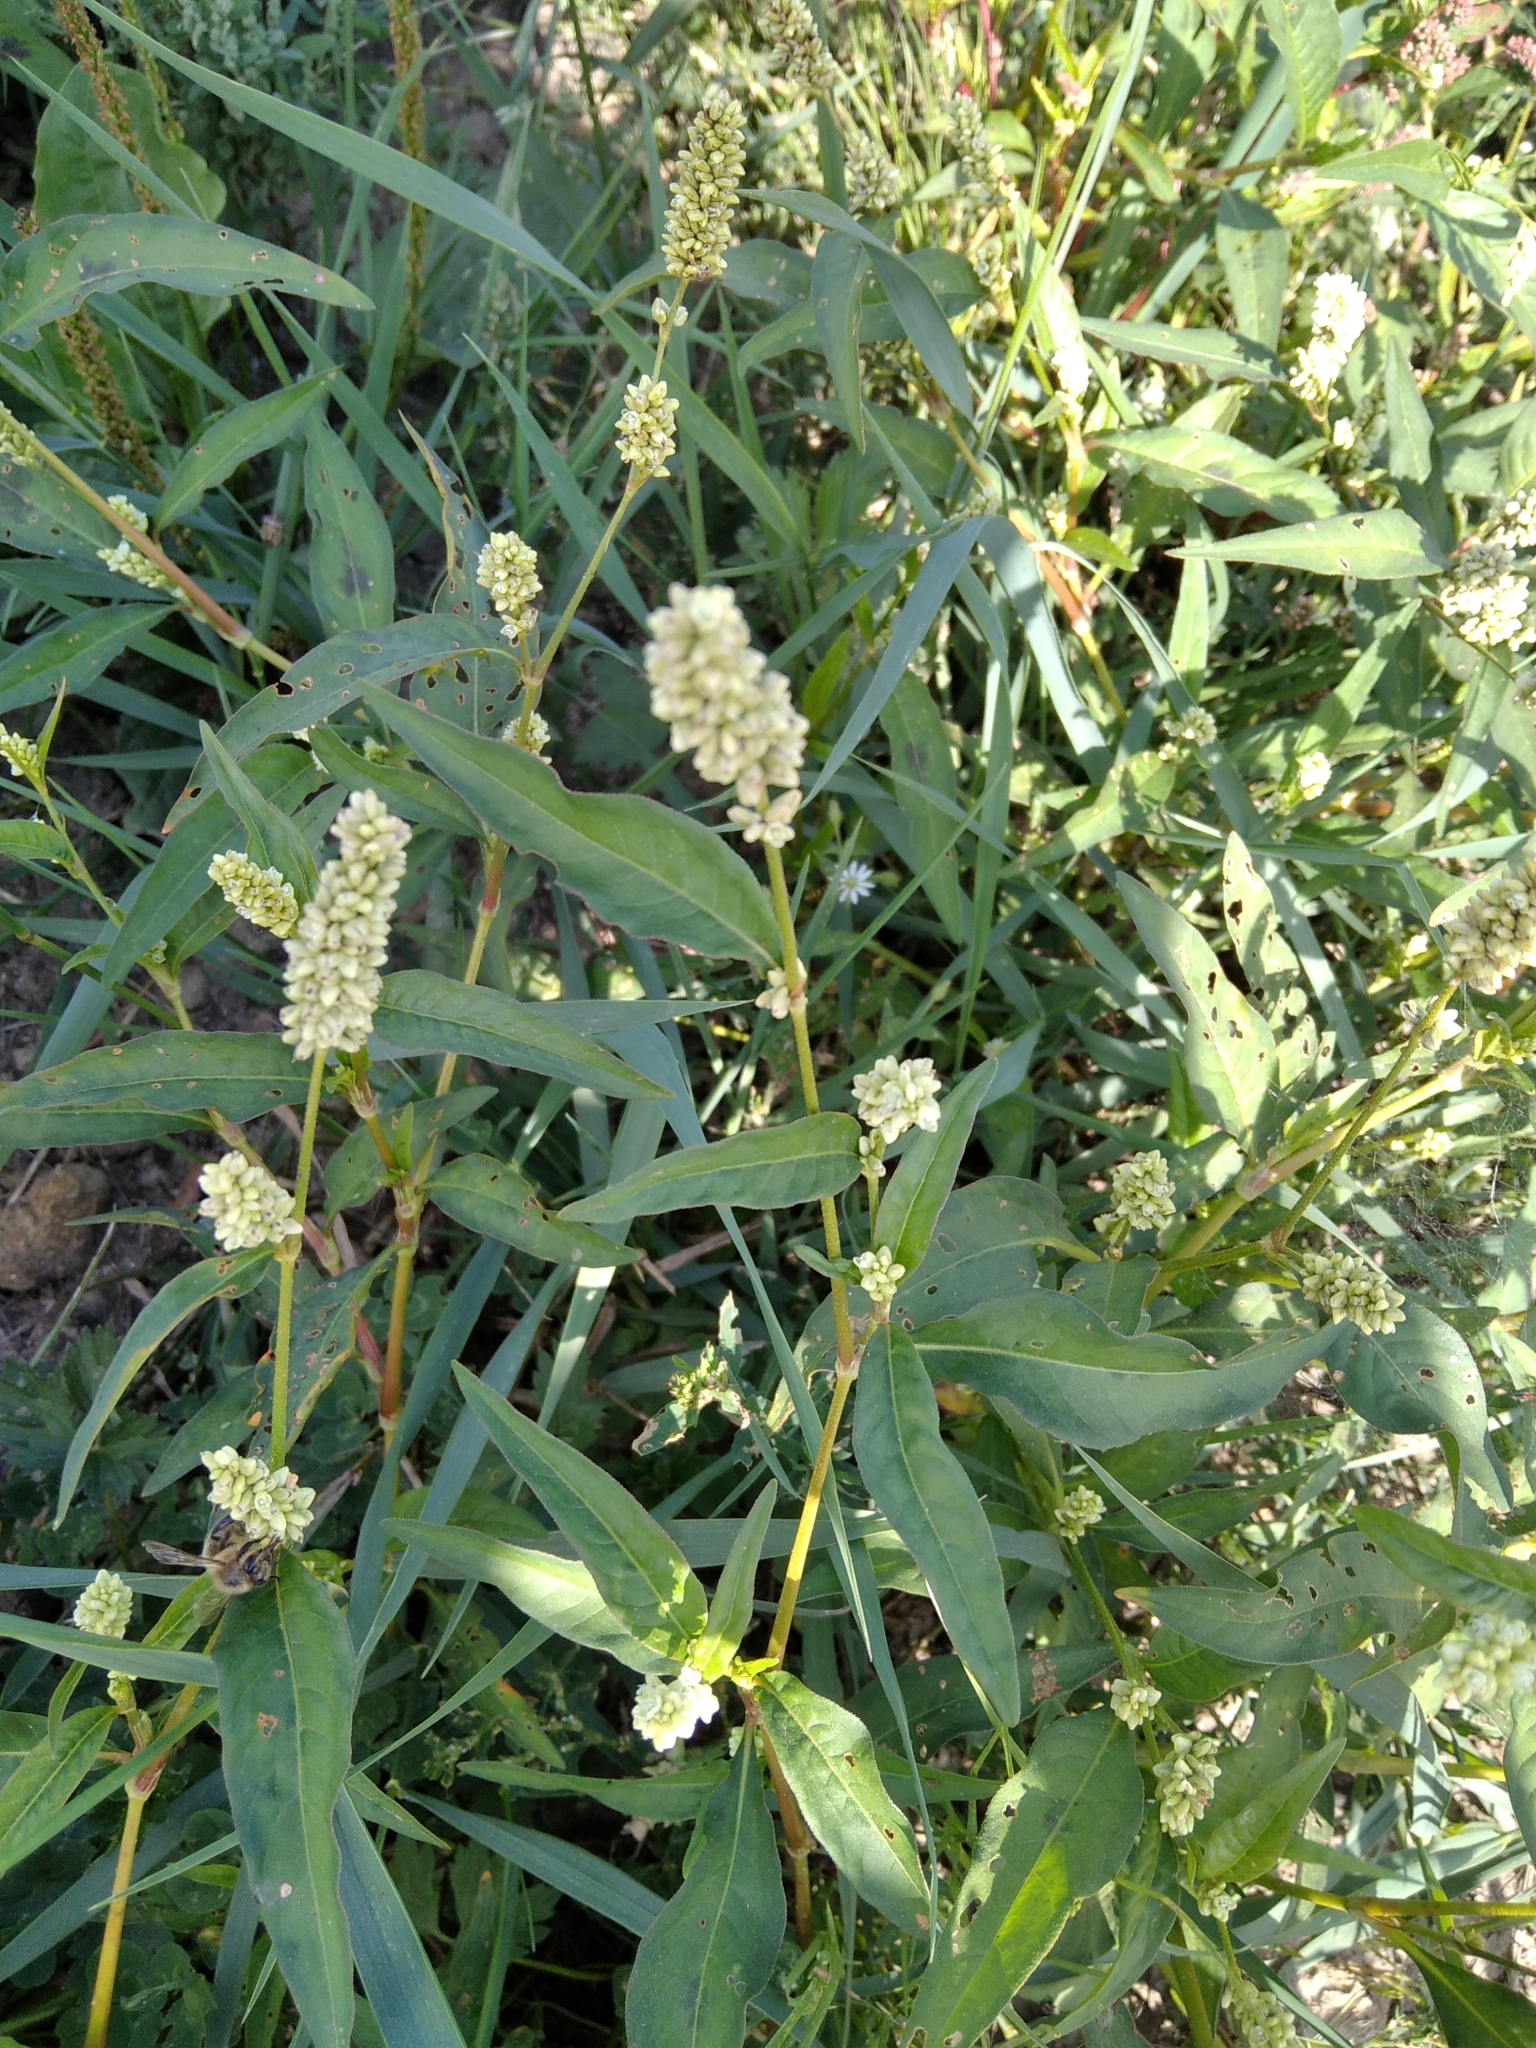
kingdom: Plantae
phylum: Tracheophyta
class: Magnoliopsida
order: Caryophyllales
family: Polygonaceae
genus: Persicaria
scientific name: Persicaria lapathifolia
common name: Curlytop knotweed
